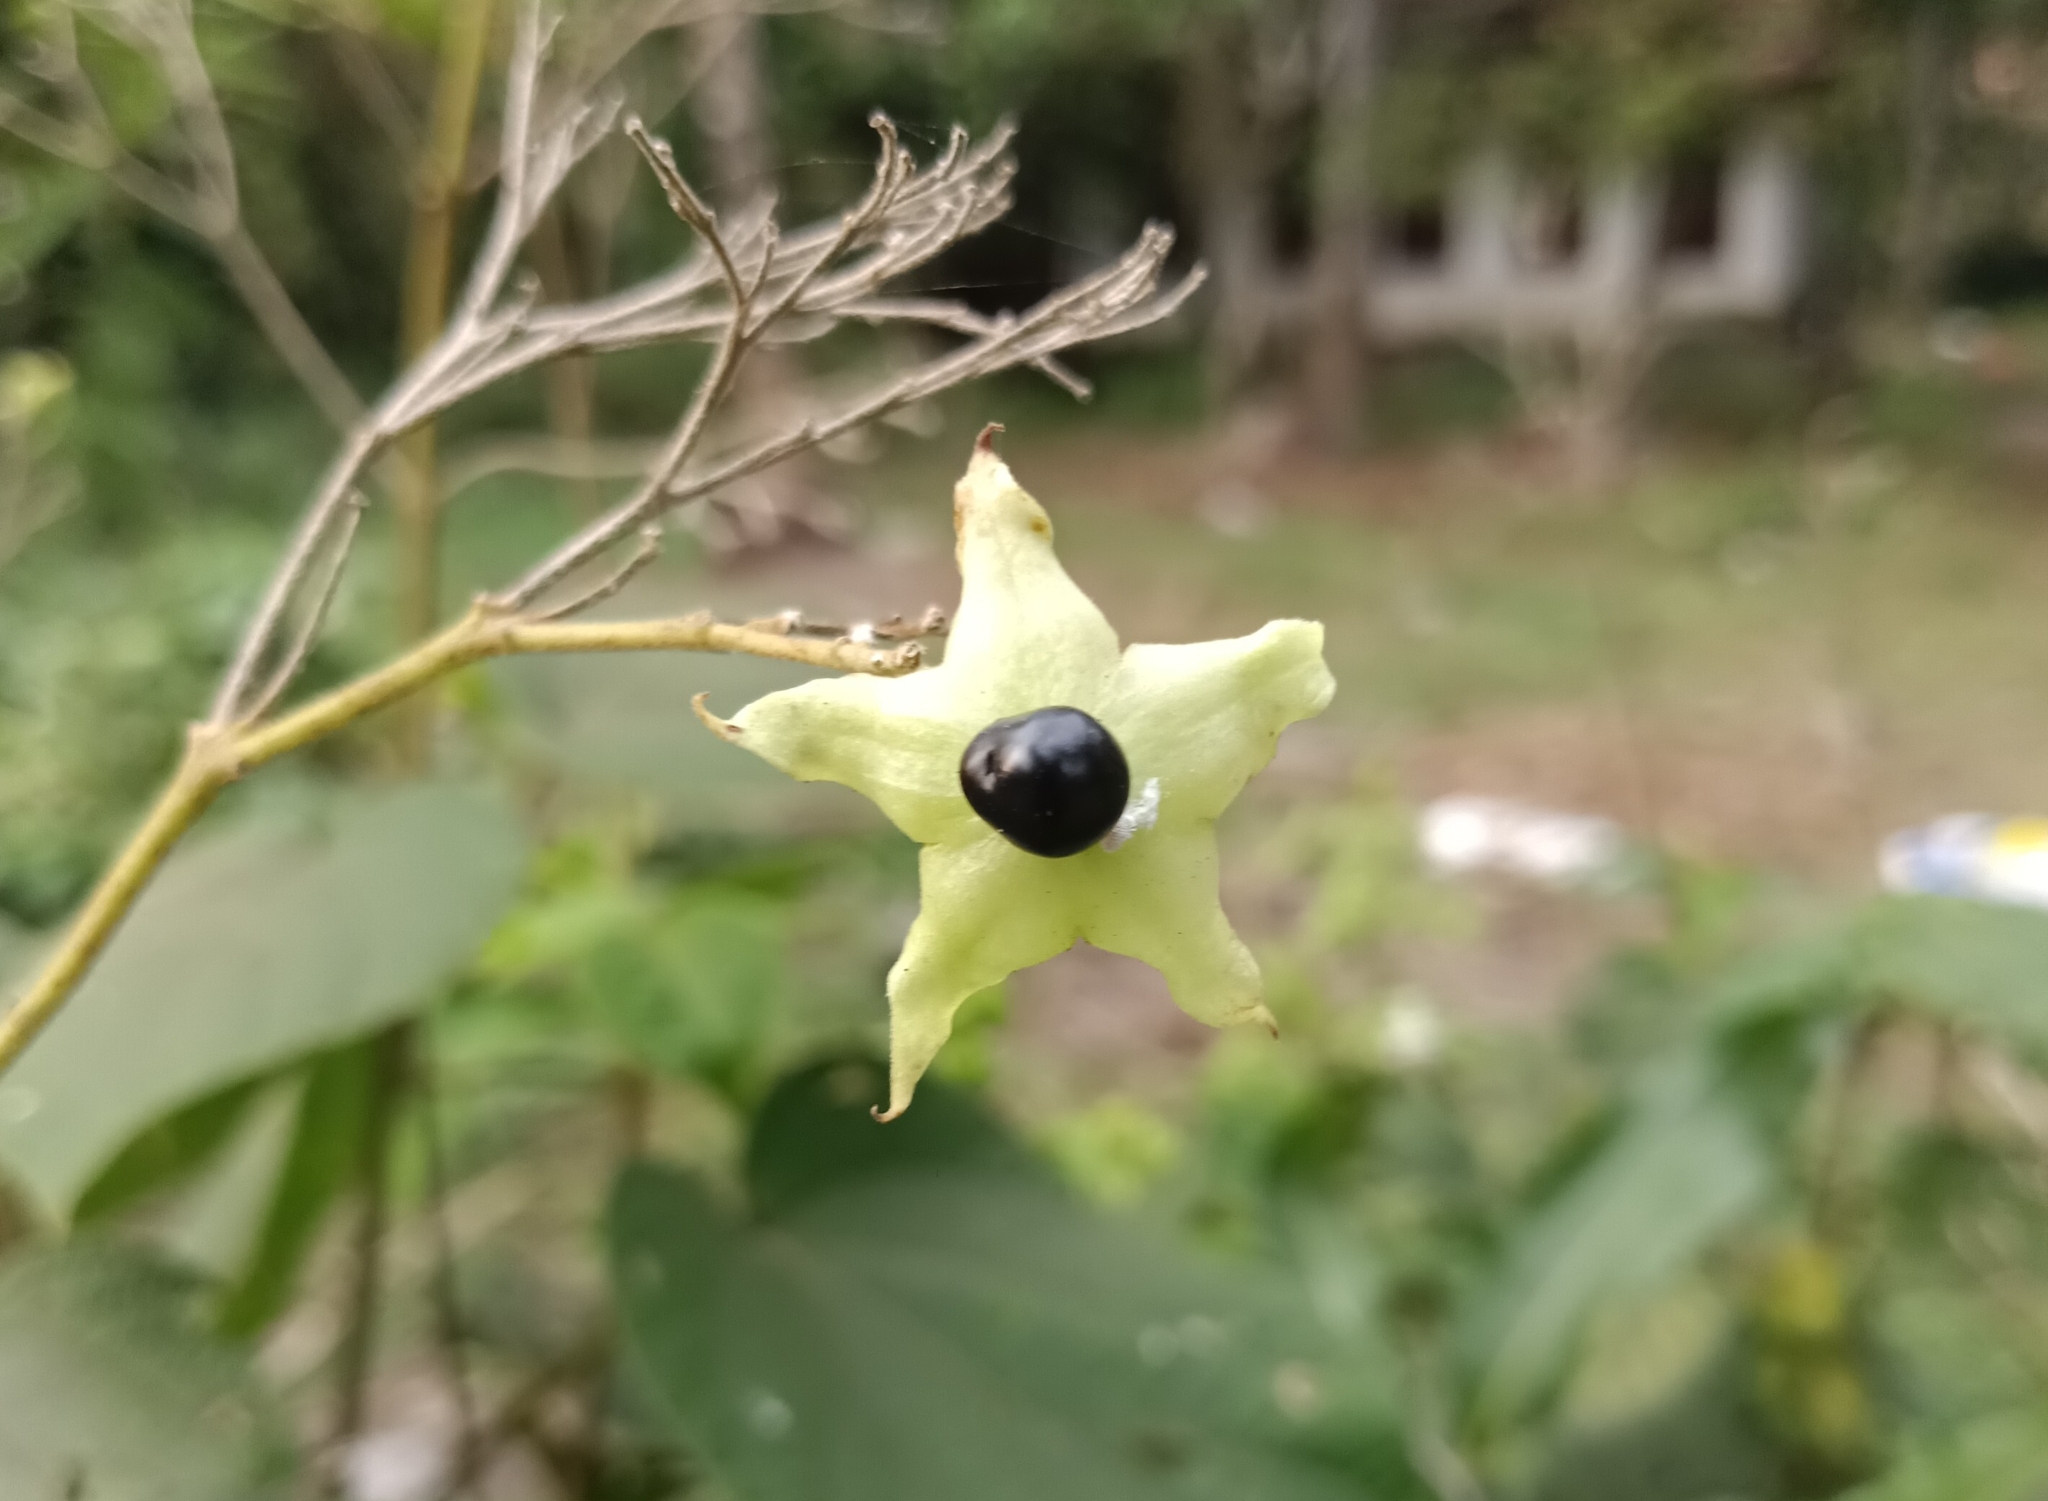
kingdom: Plantae
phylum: Tracheophyta
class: Magnoliopsida
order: Lamiales
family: Lamiaceae
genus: Clerodendrum
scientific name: Clerodendrum infortunatum
